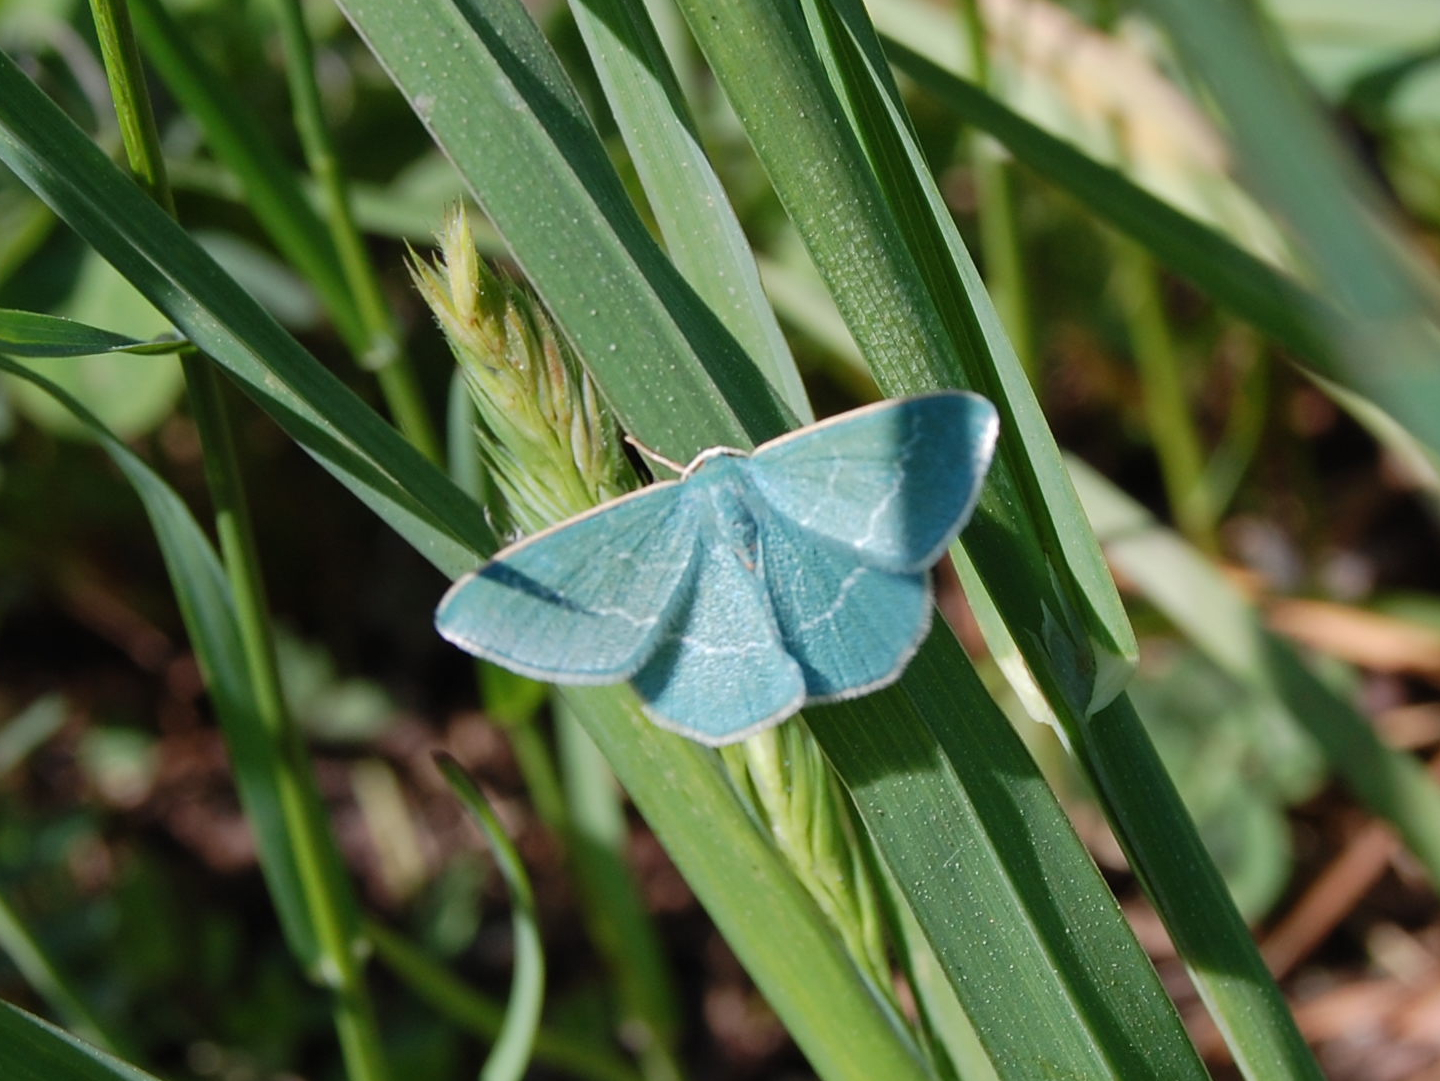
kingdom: Animalia
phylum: Arthropoda
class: Insecta
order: Lepidoptera
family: Geometridae
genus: Chlorissa
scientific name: Chlorissa viridata
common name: Small grass emerald
